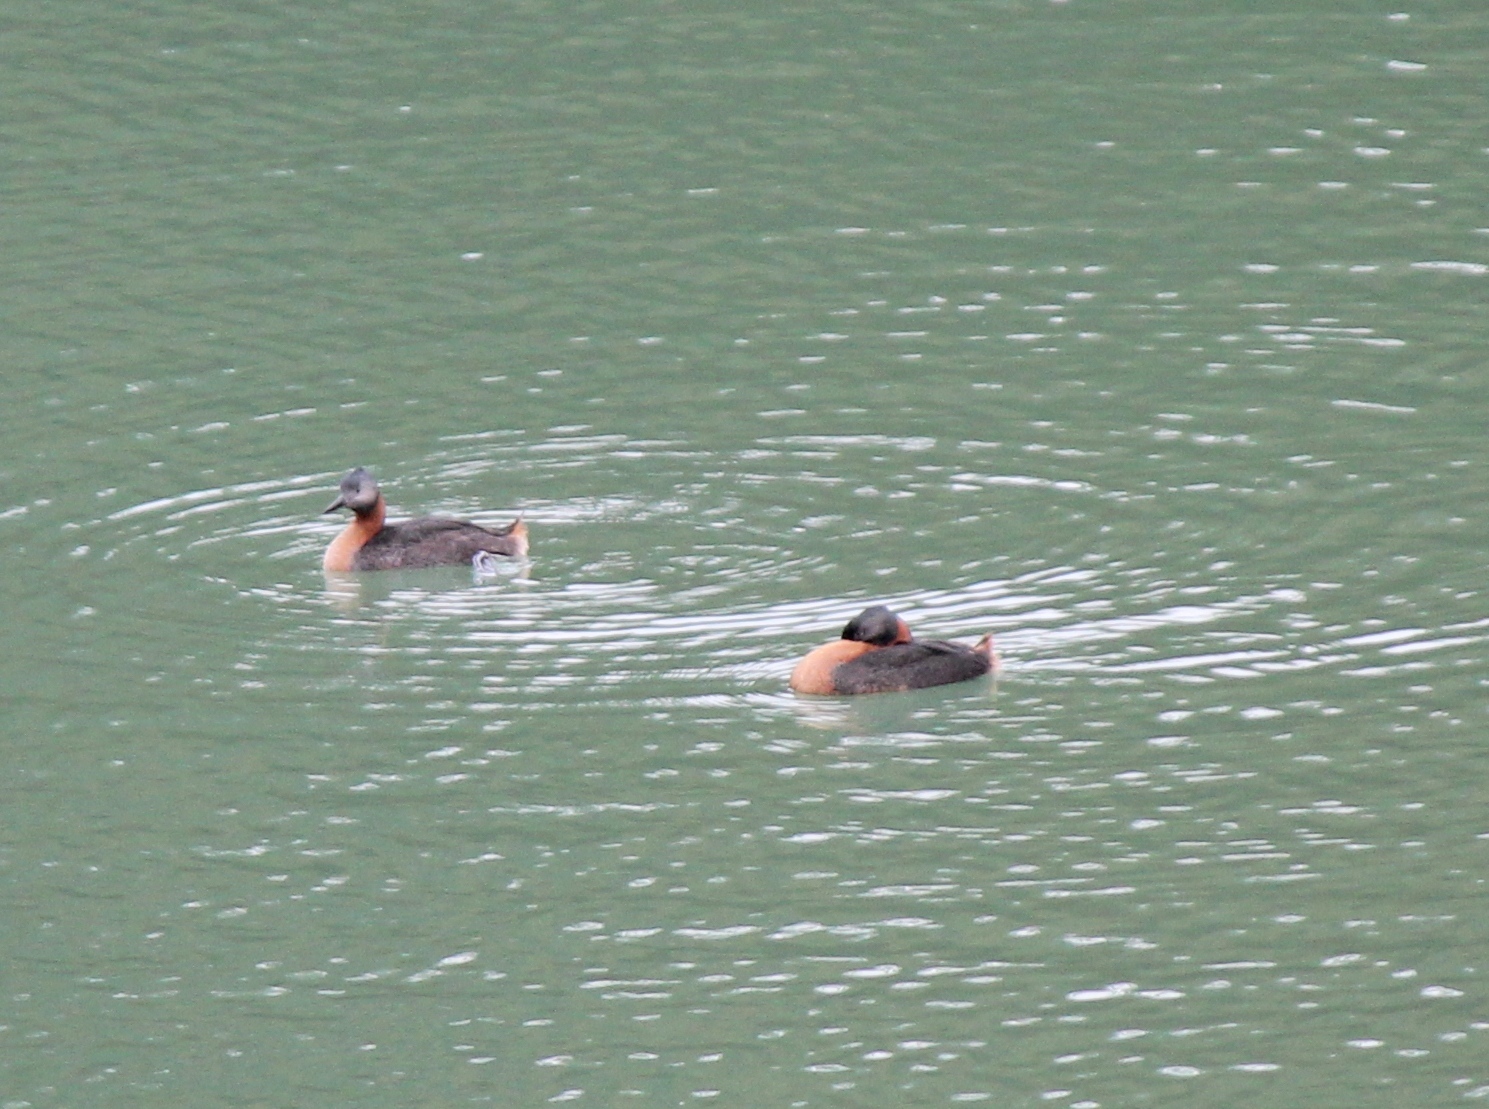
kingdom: Animalia
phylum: Chordata
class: Aves
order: Podicipediformes
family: Podicipedidae
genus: Podiceps
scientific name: Podiceps major
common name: Great grebe
